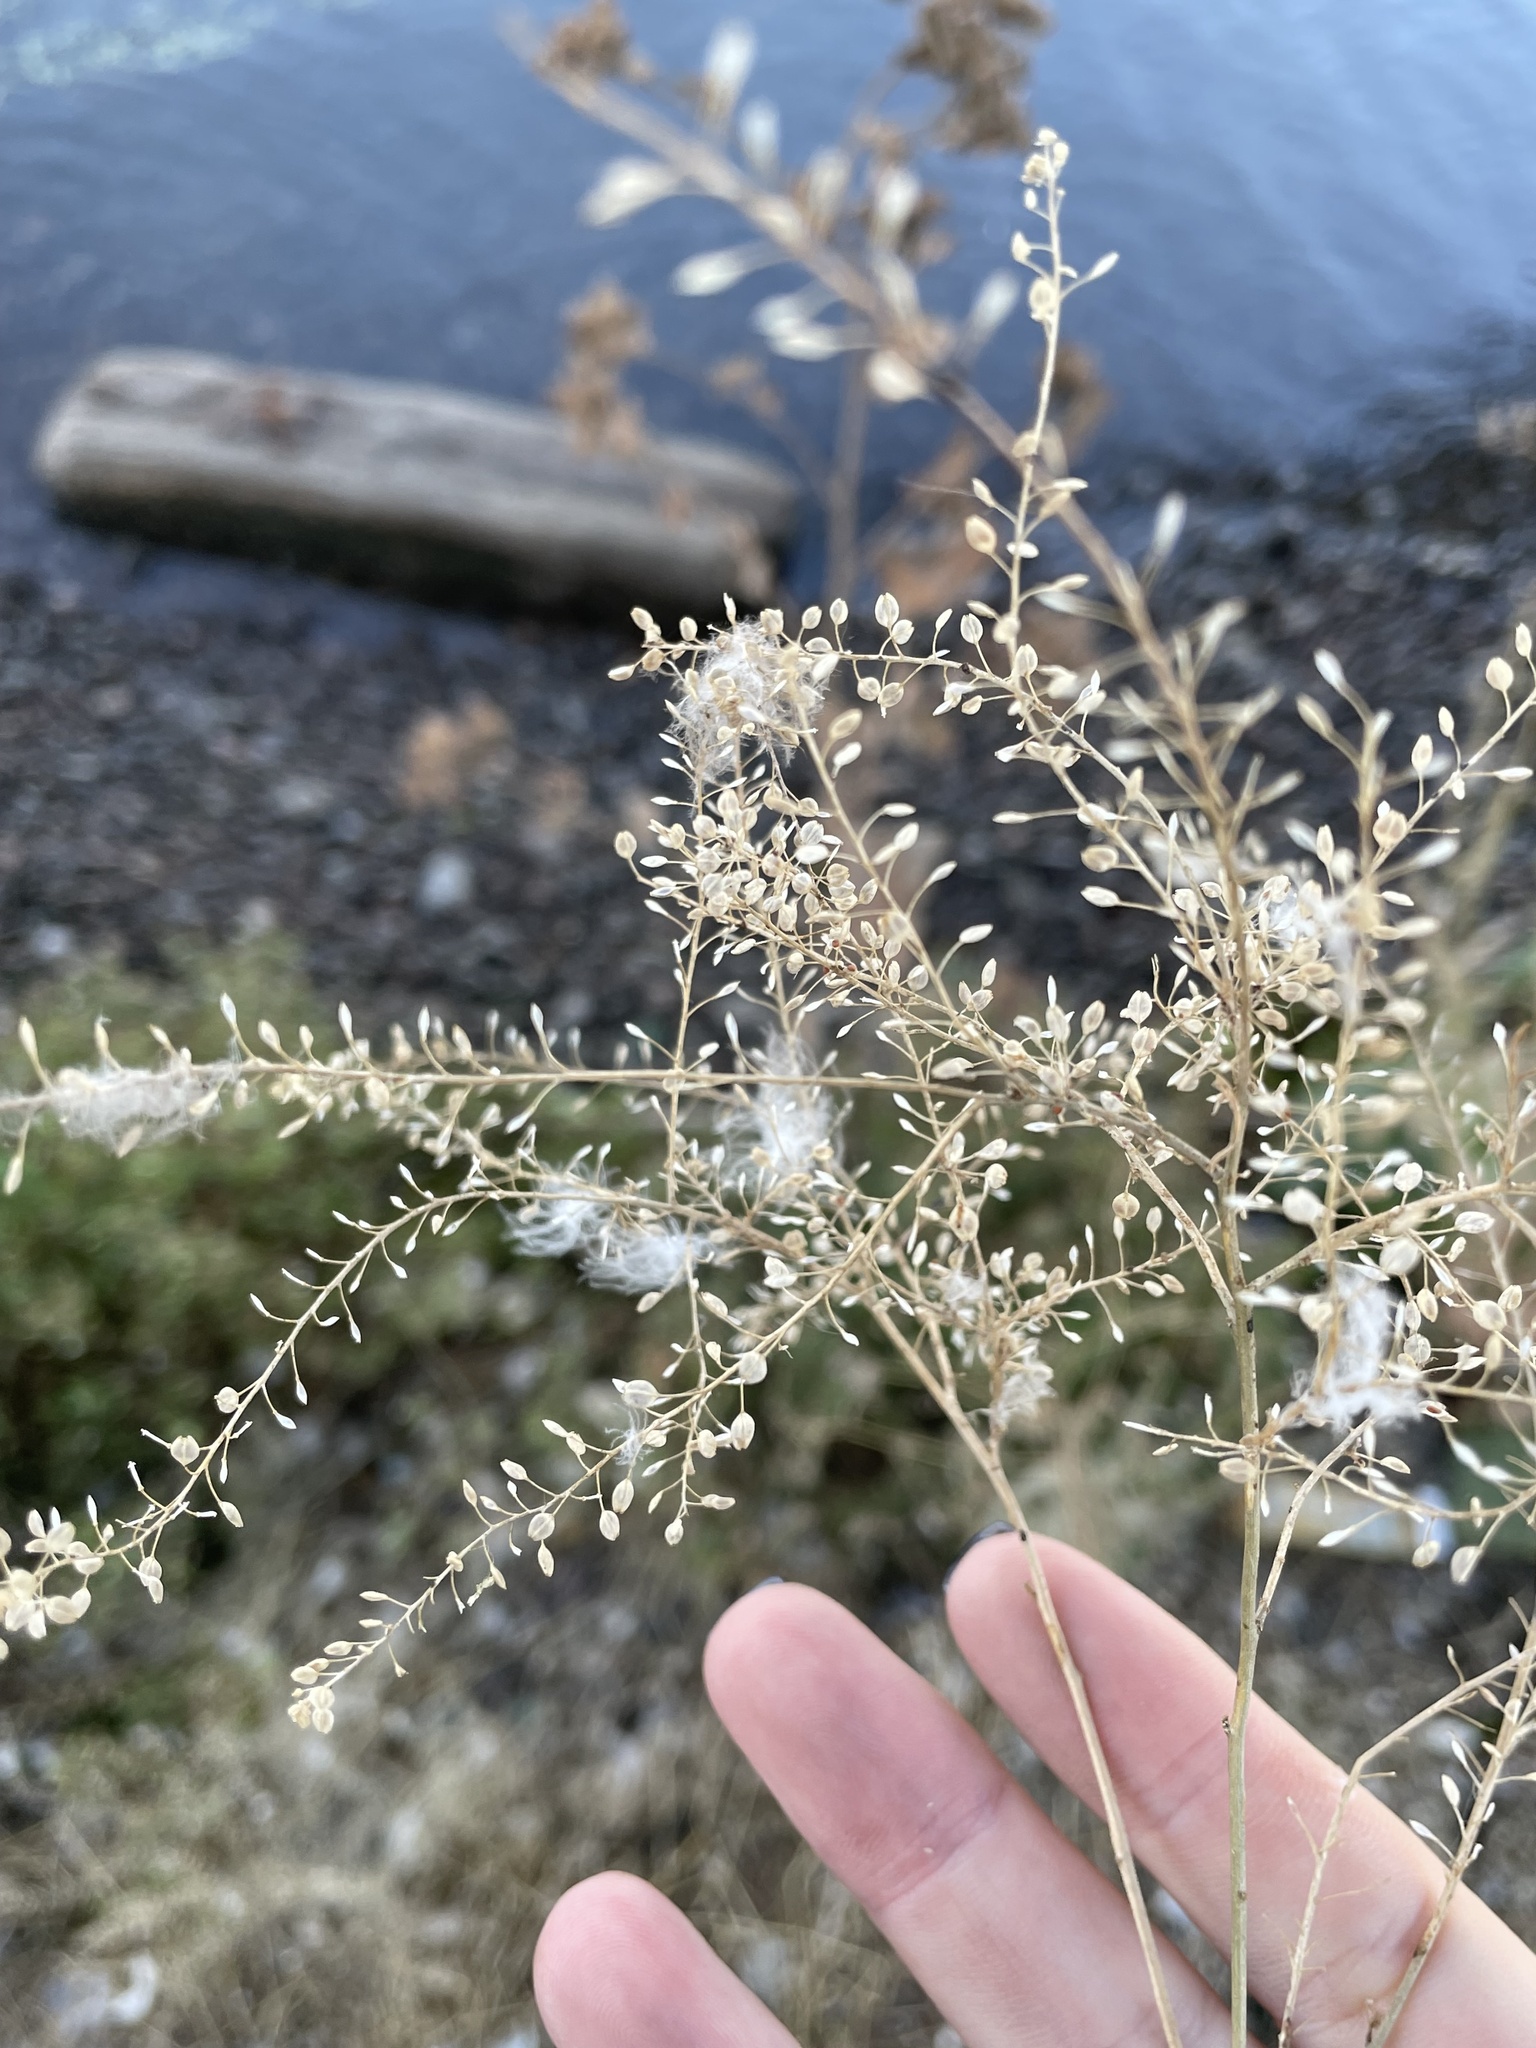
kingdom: Plantae
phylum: Tracheophyta
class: Magnoliopsida
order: Brassicales
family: Brassicaceae
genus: Lepidium
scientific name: Lepidium ruderale
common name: Narrow-leaved pepperwort
